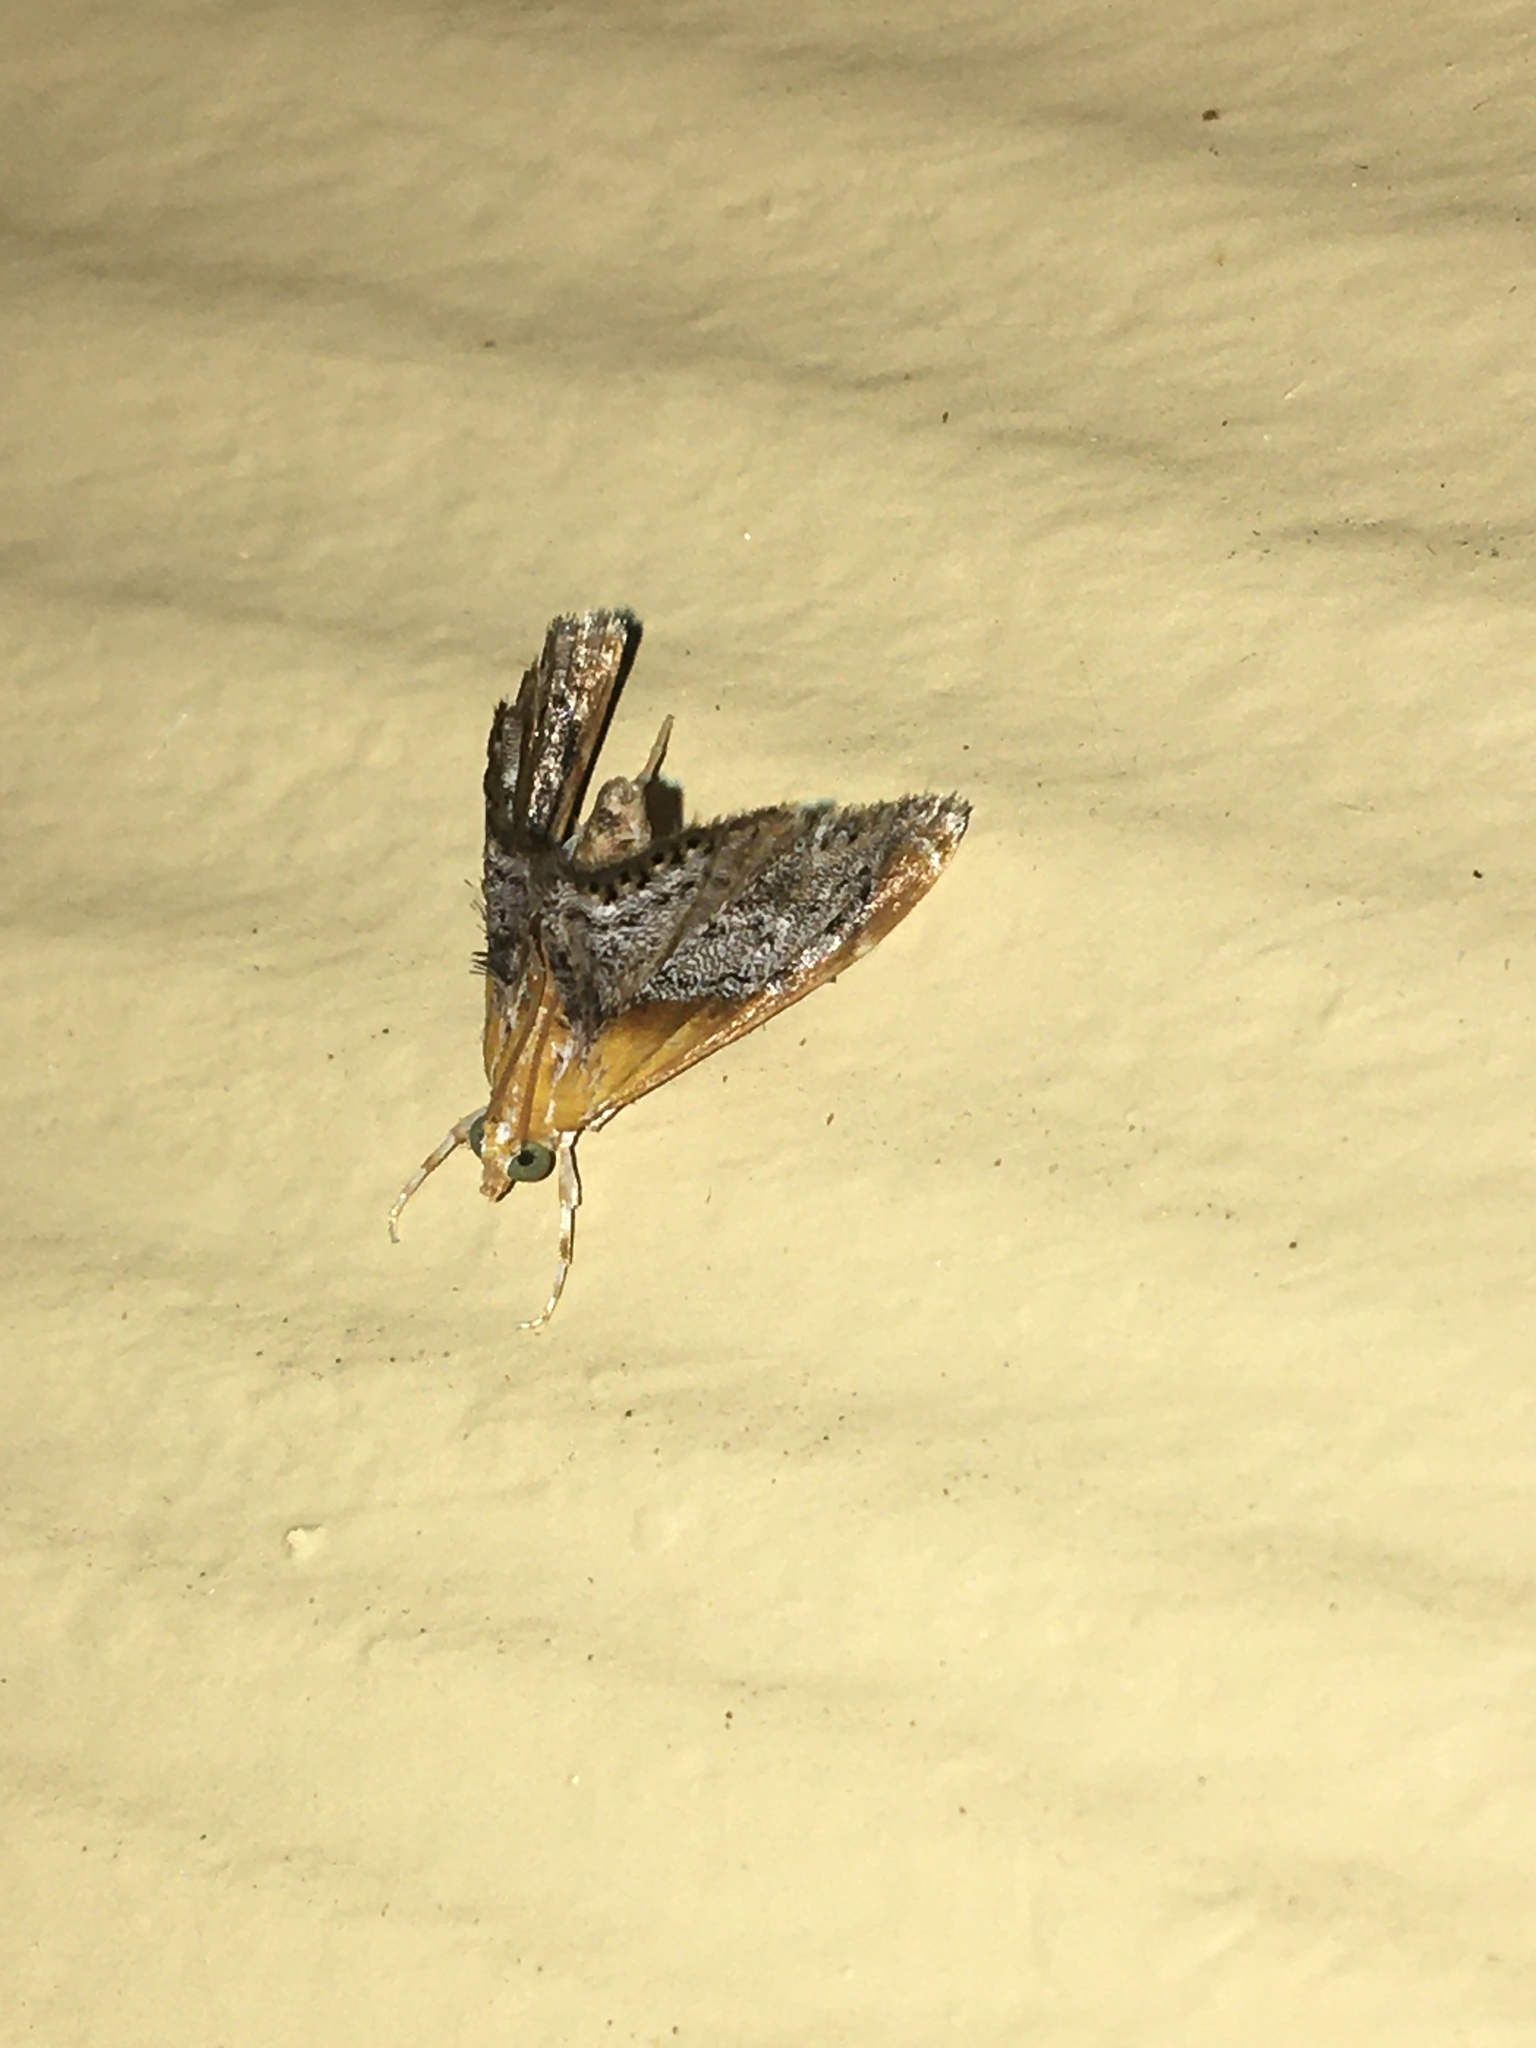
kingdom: Animalia
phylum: Arthropoda
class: Insecta
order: Lepidoptera
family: Crambidae
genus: Chalcoela
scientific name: Chalcoela iphitalis
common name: Sooty-winged chalcoela moth
